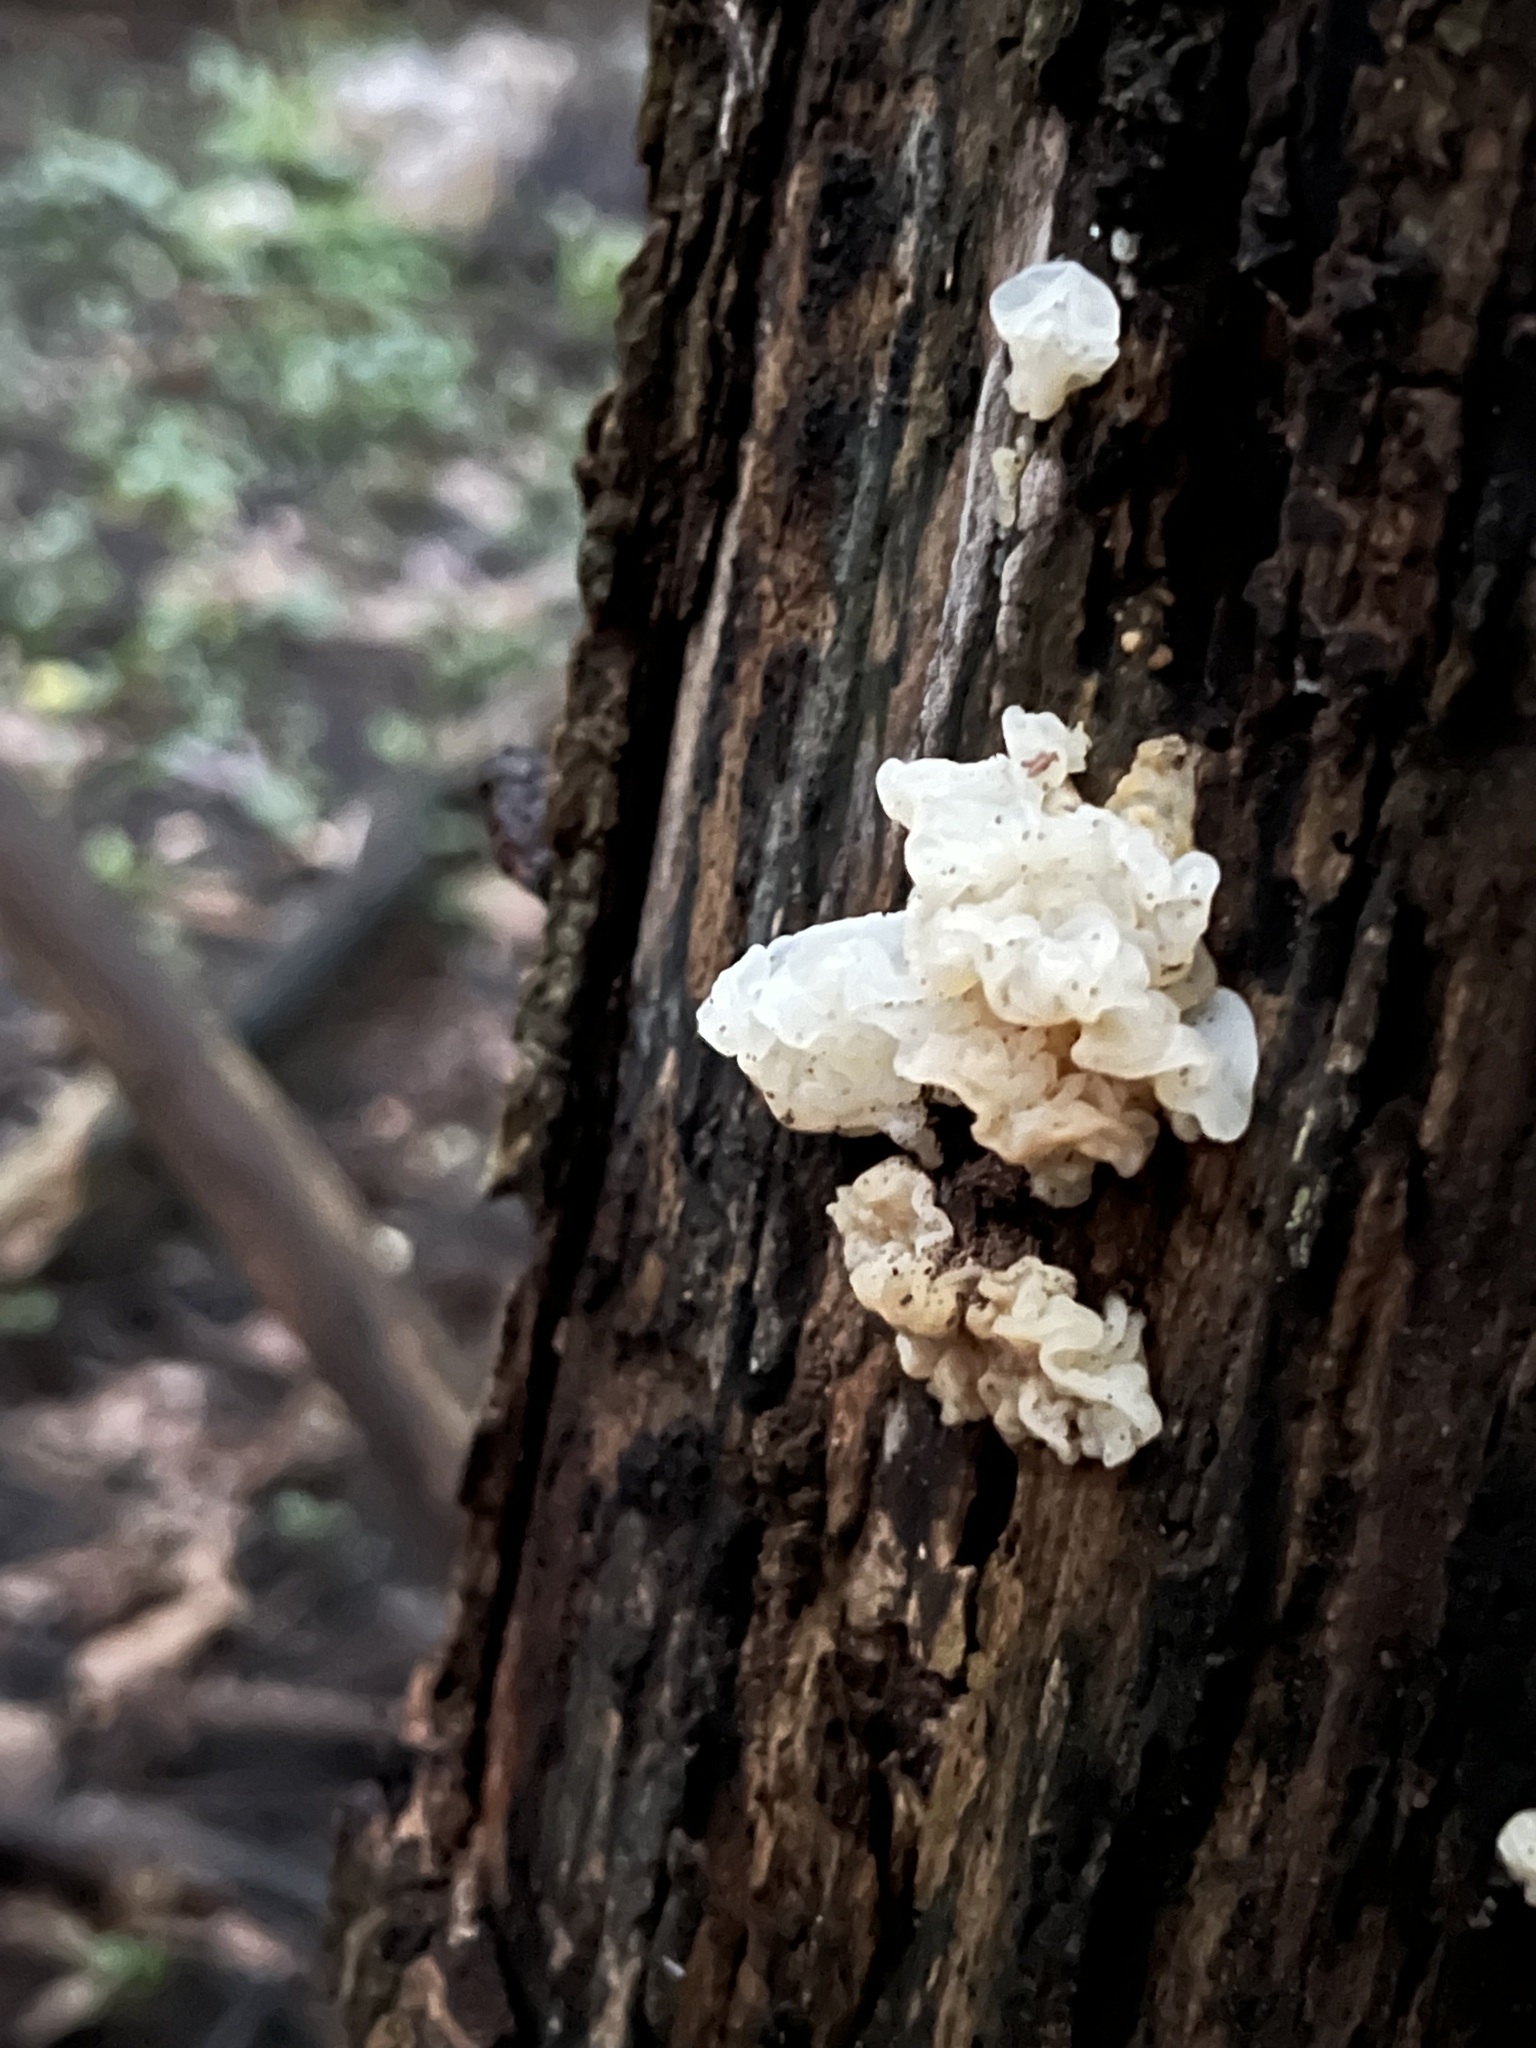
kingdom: Fungi
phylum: Basidiomycota
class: Agaricomycetes
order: Auriculariales
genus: Ductifera
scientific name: Ductifera pululahuana
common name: White jelly fungus
